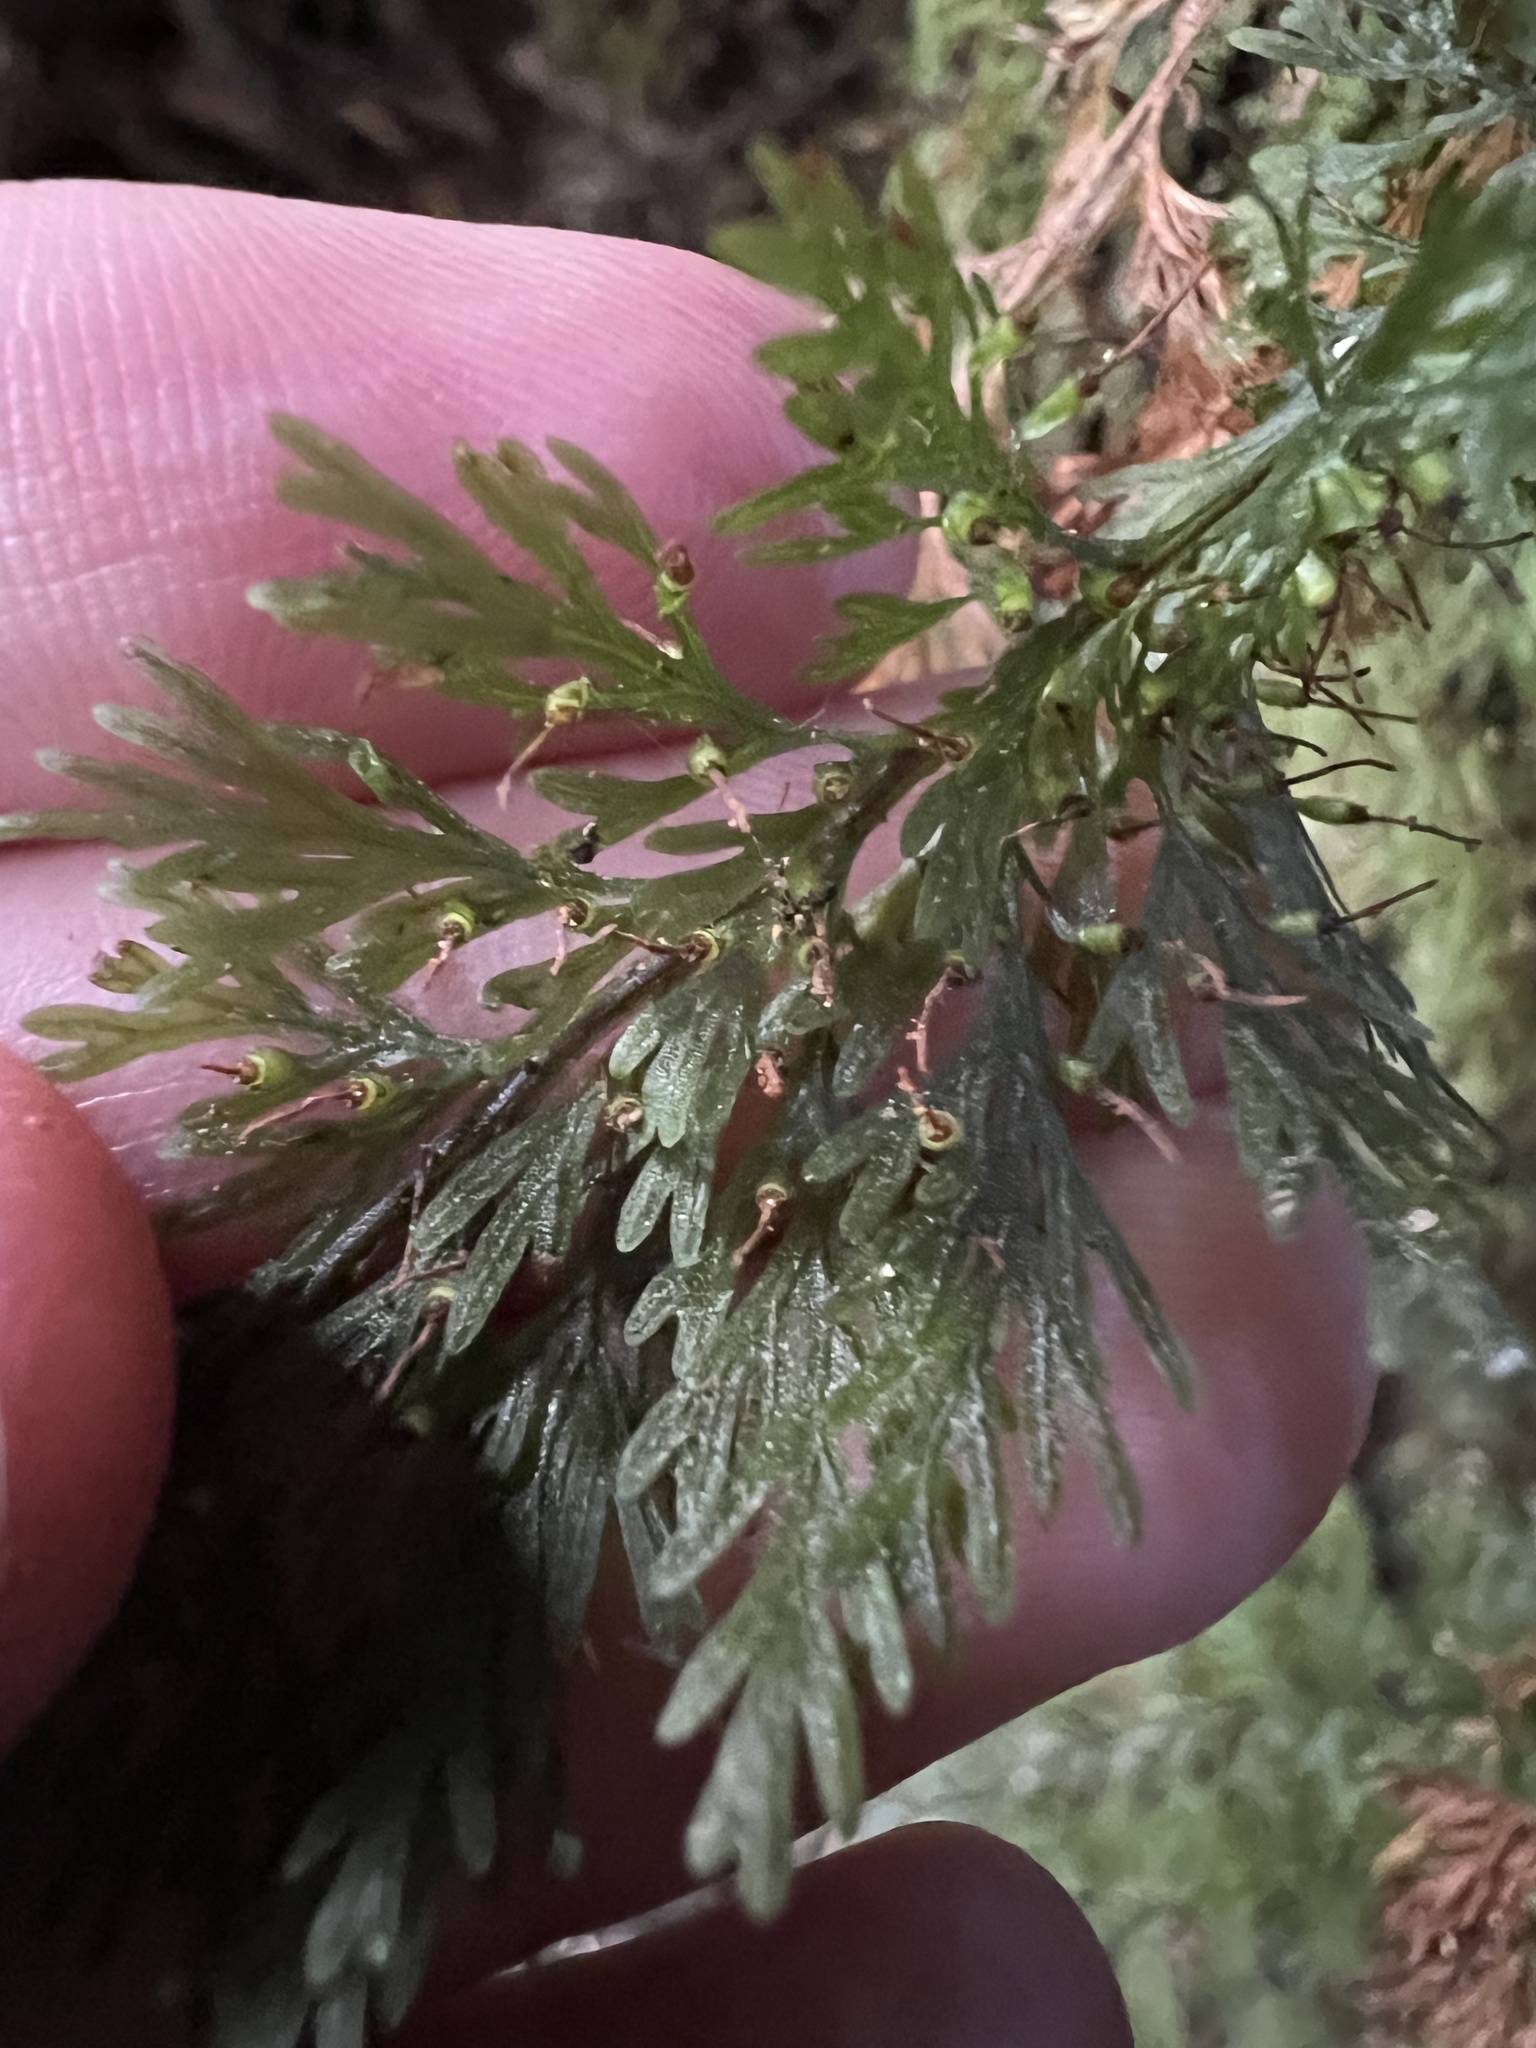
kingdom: Plantae
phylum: Tracheophyta
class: Polypodiopsida
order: Hymenophyllales
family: Hymenophyllaceae
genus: Abrodictyum
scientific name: Abrodictyum strictum
